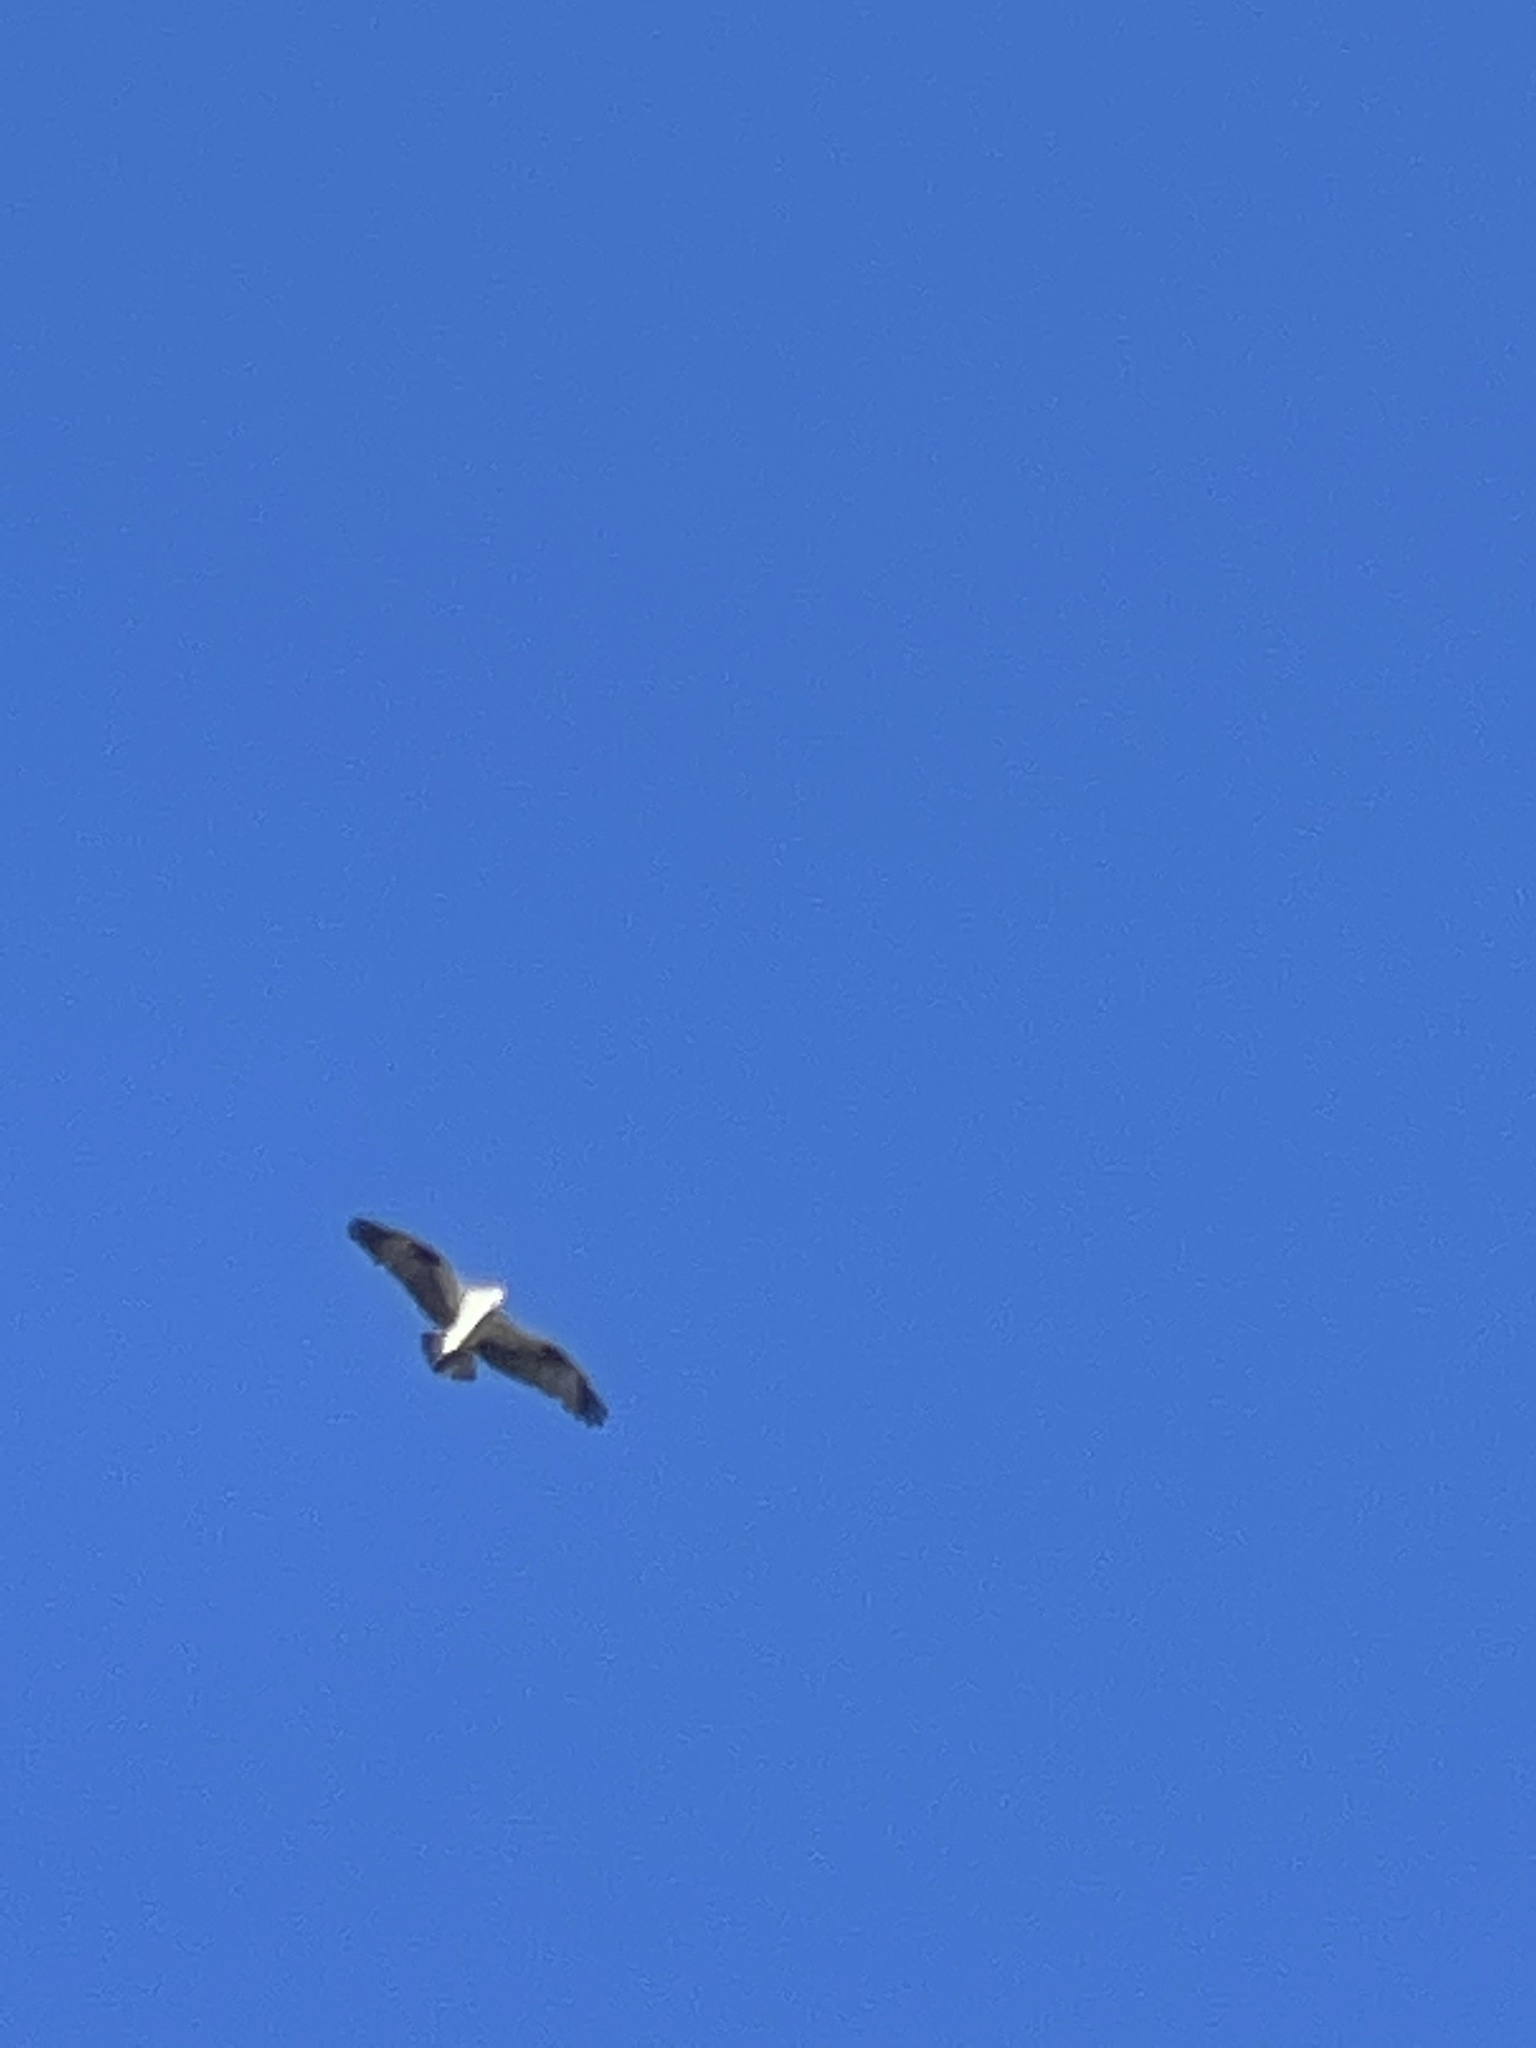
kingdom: Animalia
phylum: Chordata
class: Aves
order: Accipitriformes
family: Pandionidae
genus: Pandion
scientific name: Pandion haliaetus
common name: Osprey
